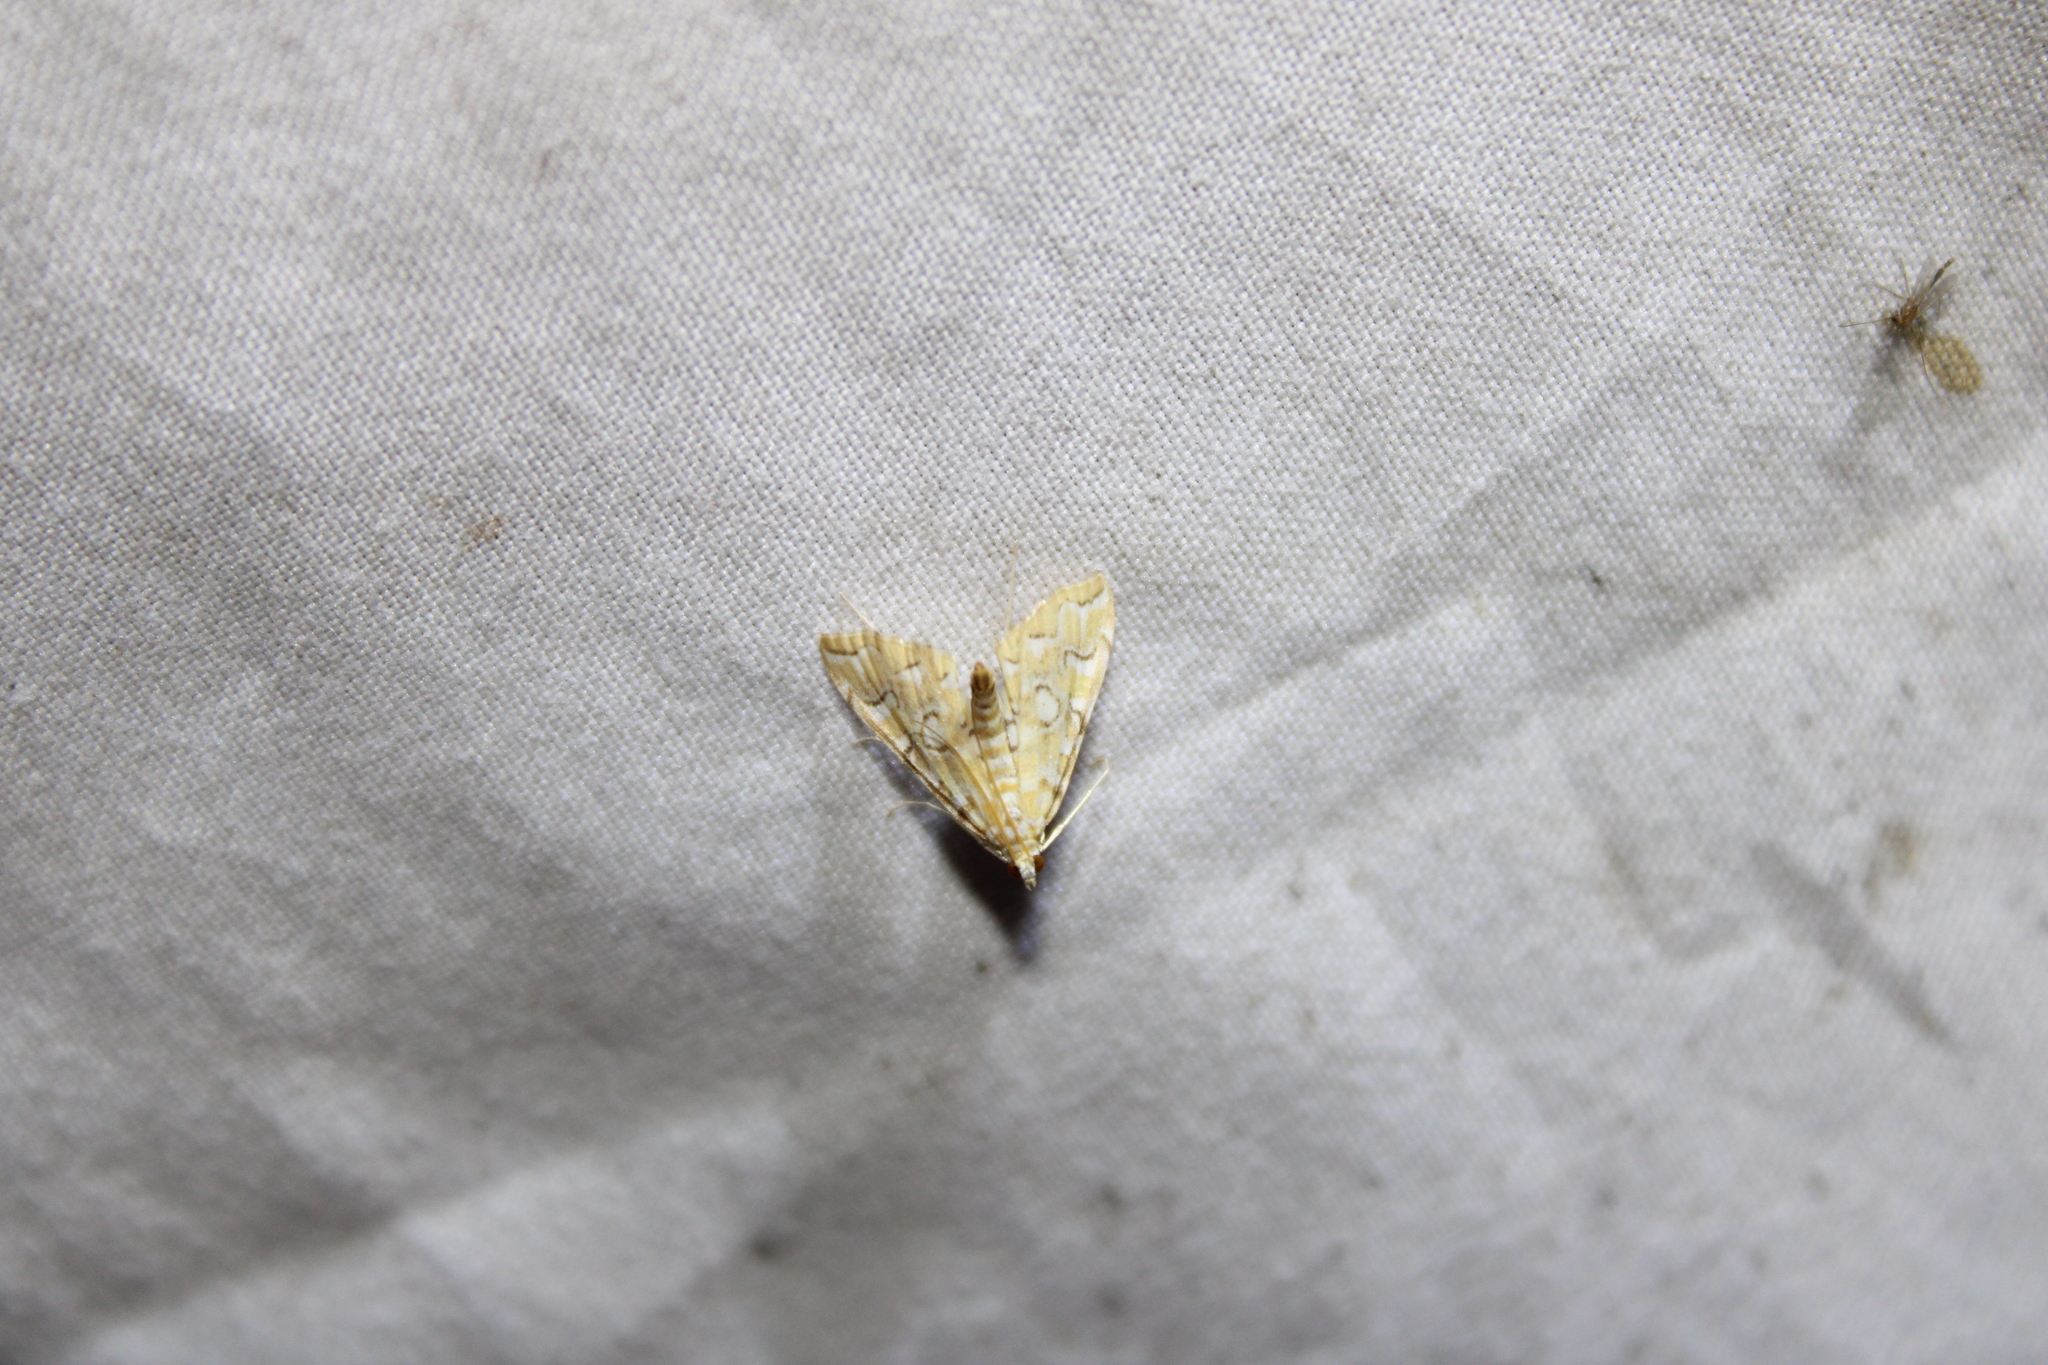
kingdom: Animalia
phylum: Arthropoda
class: Insecta
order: Lepidoptera
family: Crambidae
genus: Elophila
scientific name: Elophila icciusalis
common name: Pondside pyralid moth
